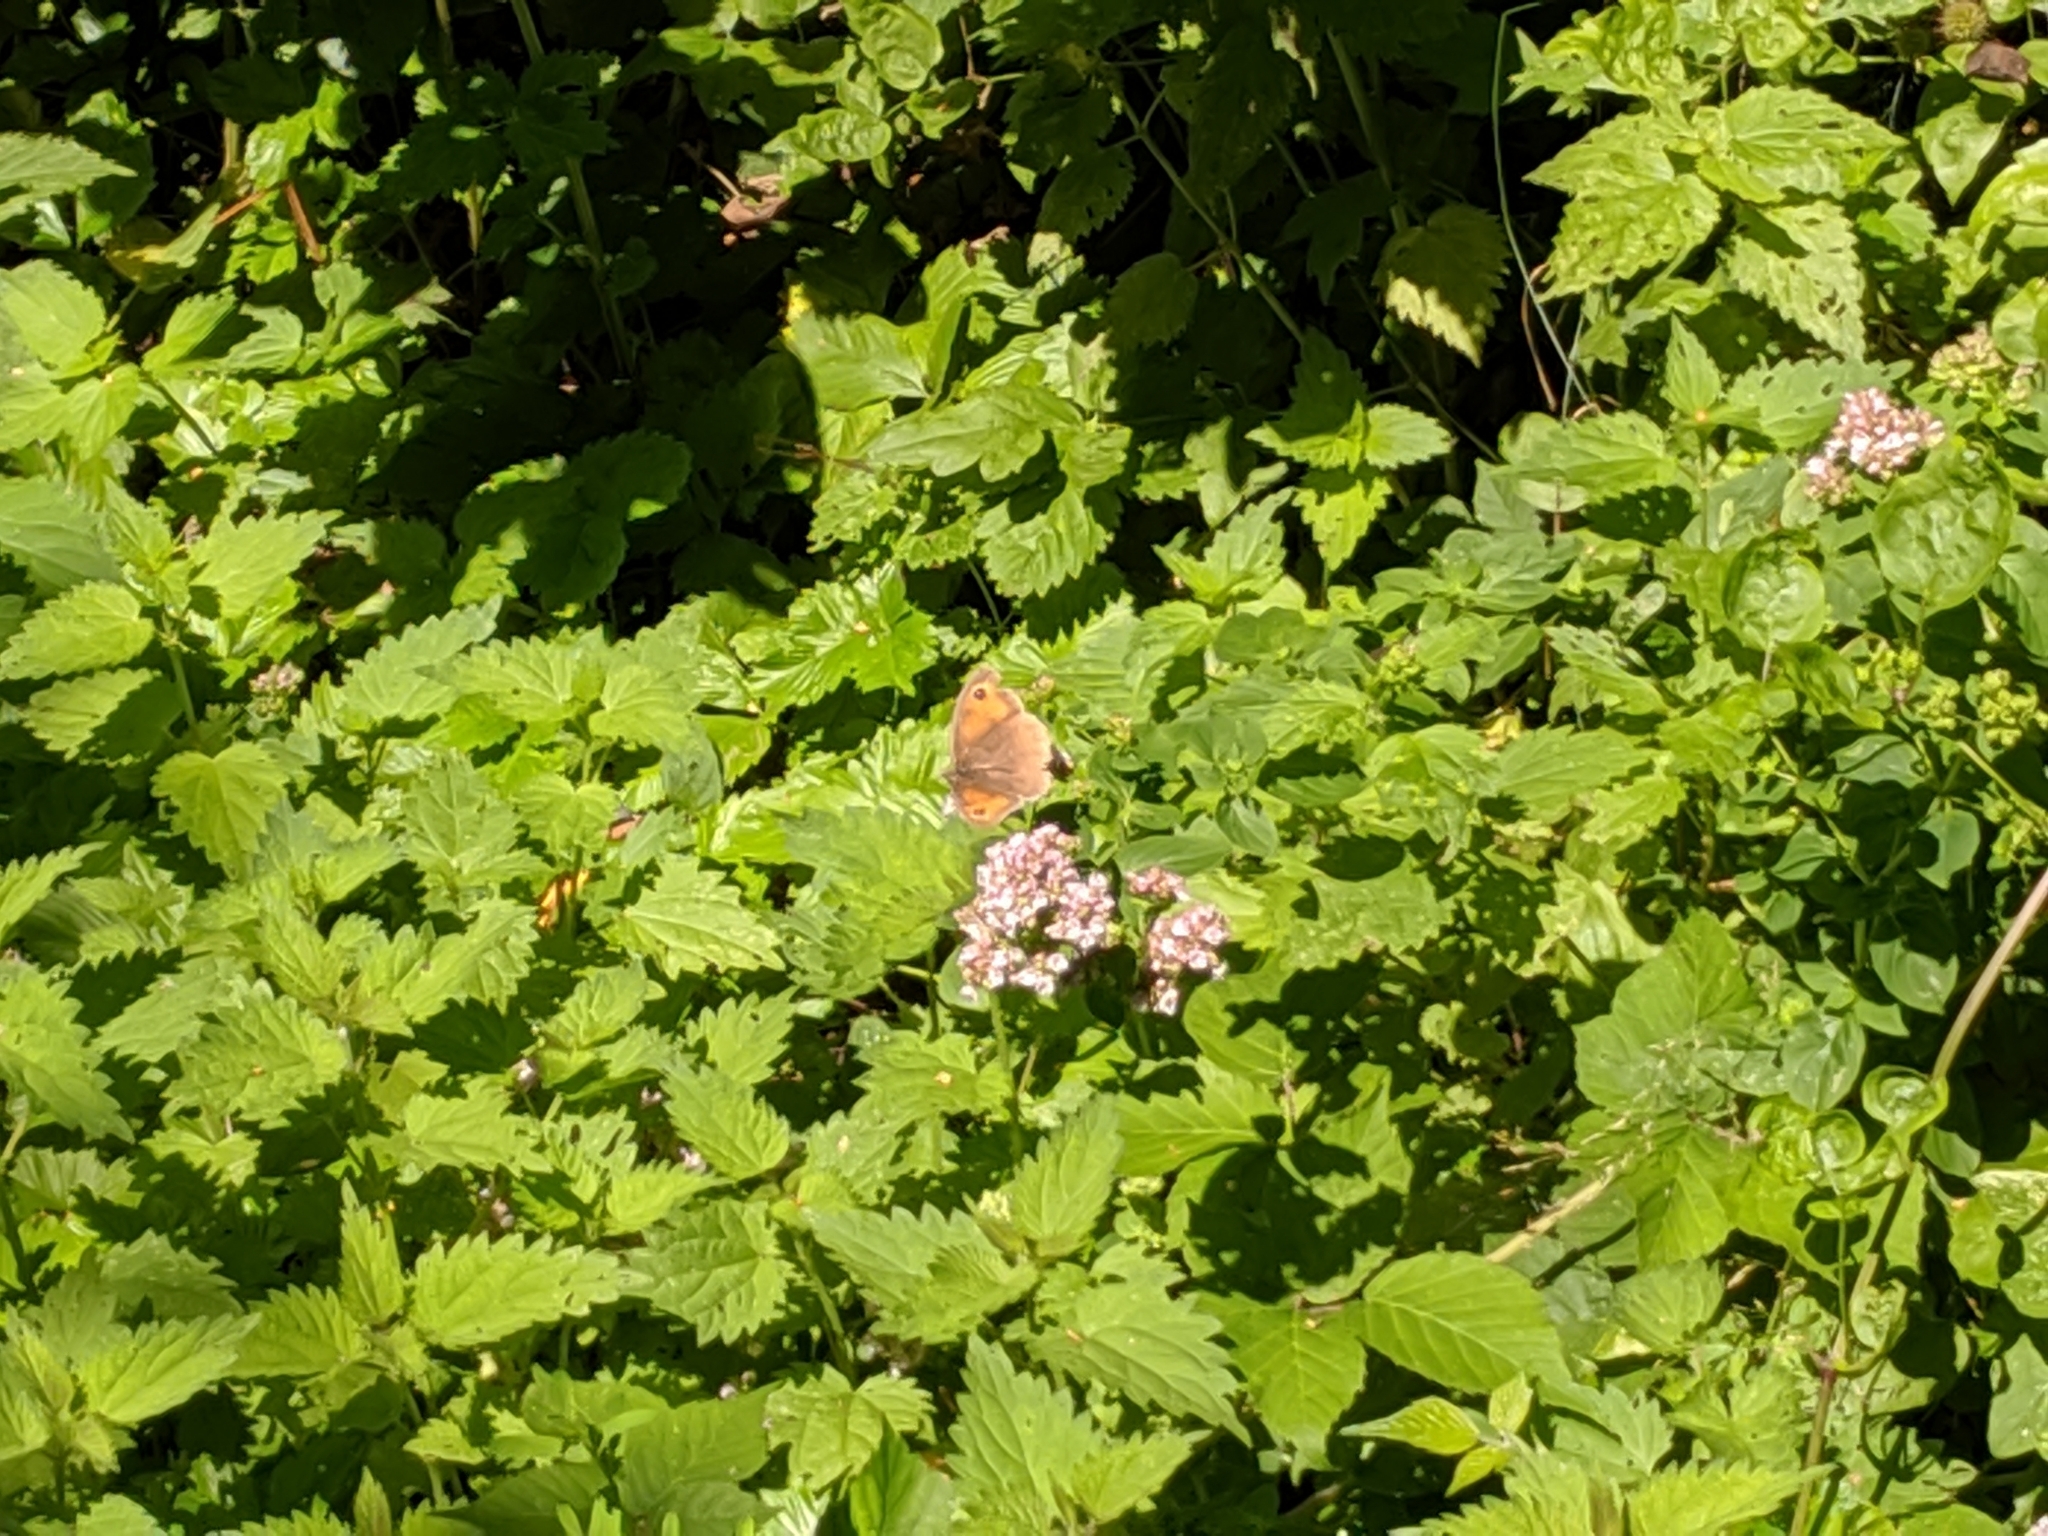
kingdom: Animalia
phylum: Arthropoda
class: Insecta
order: Lepidoptera
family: Nymphalidae
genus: Maniola
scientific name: Maniola jurtina
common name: Meadow brown
